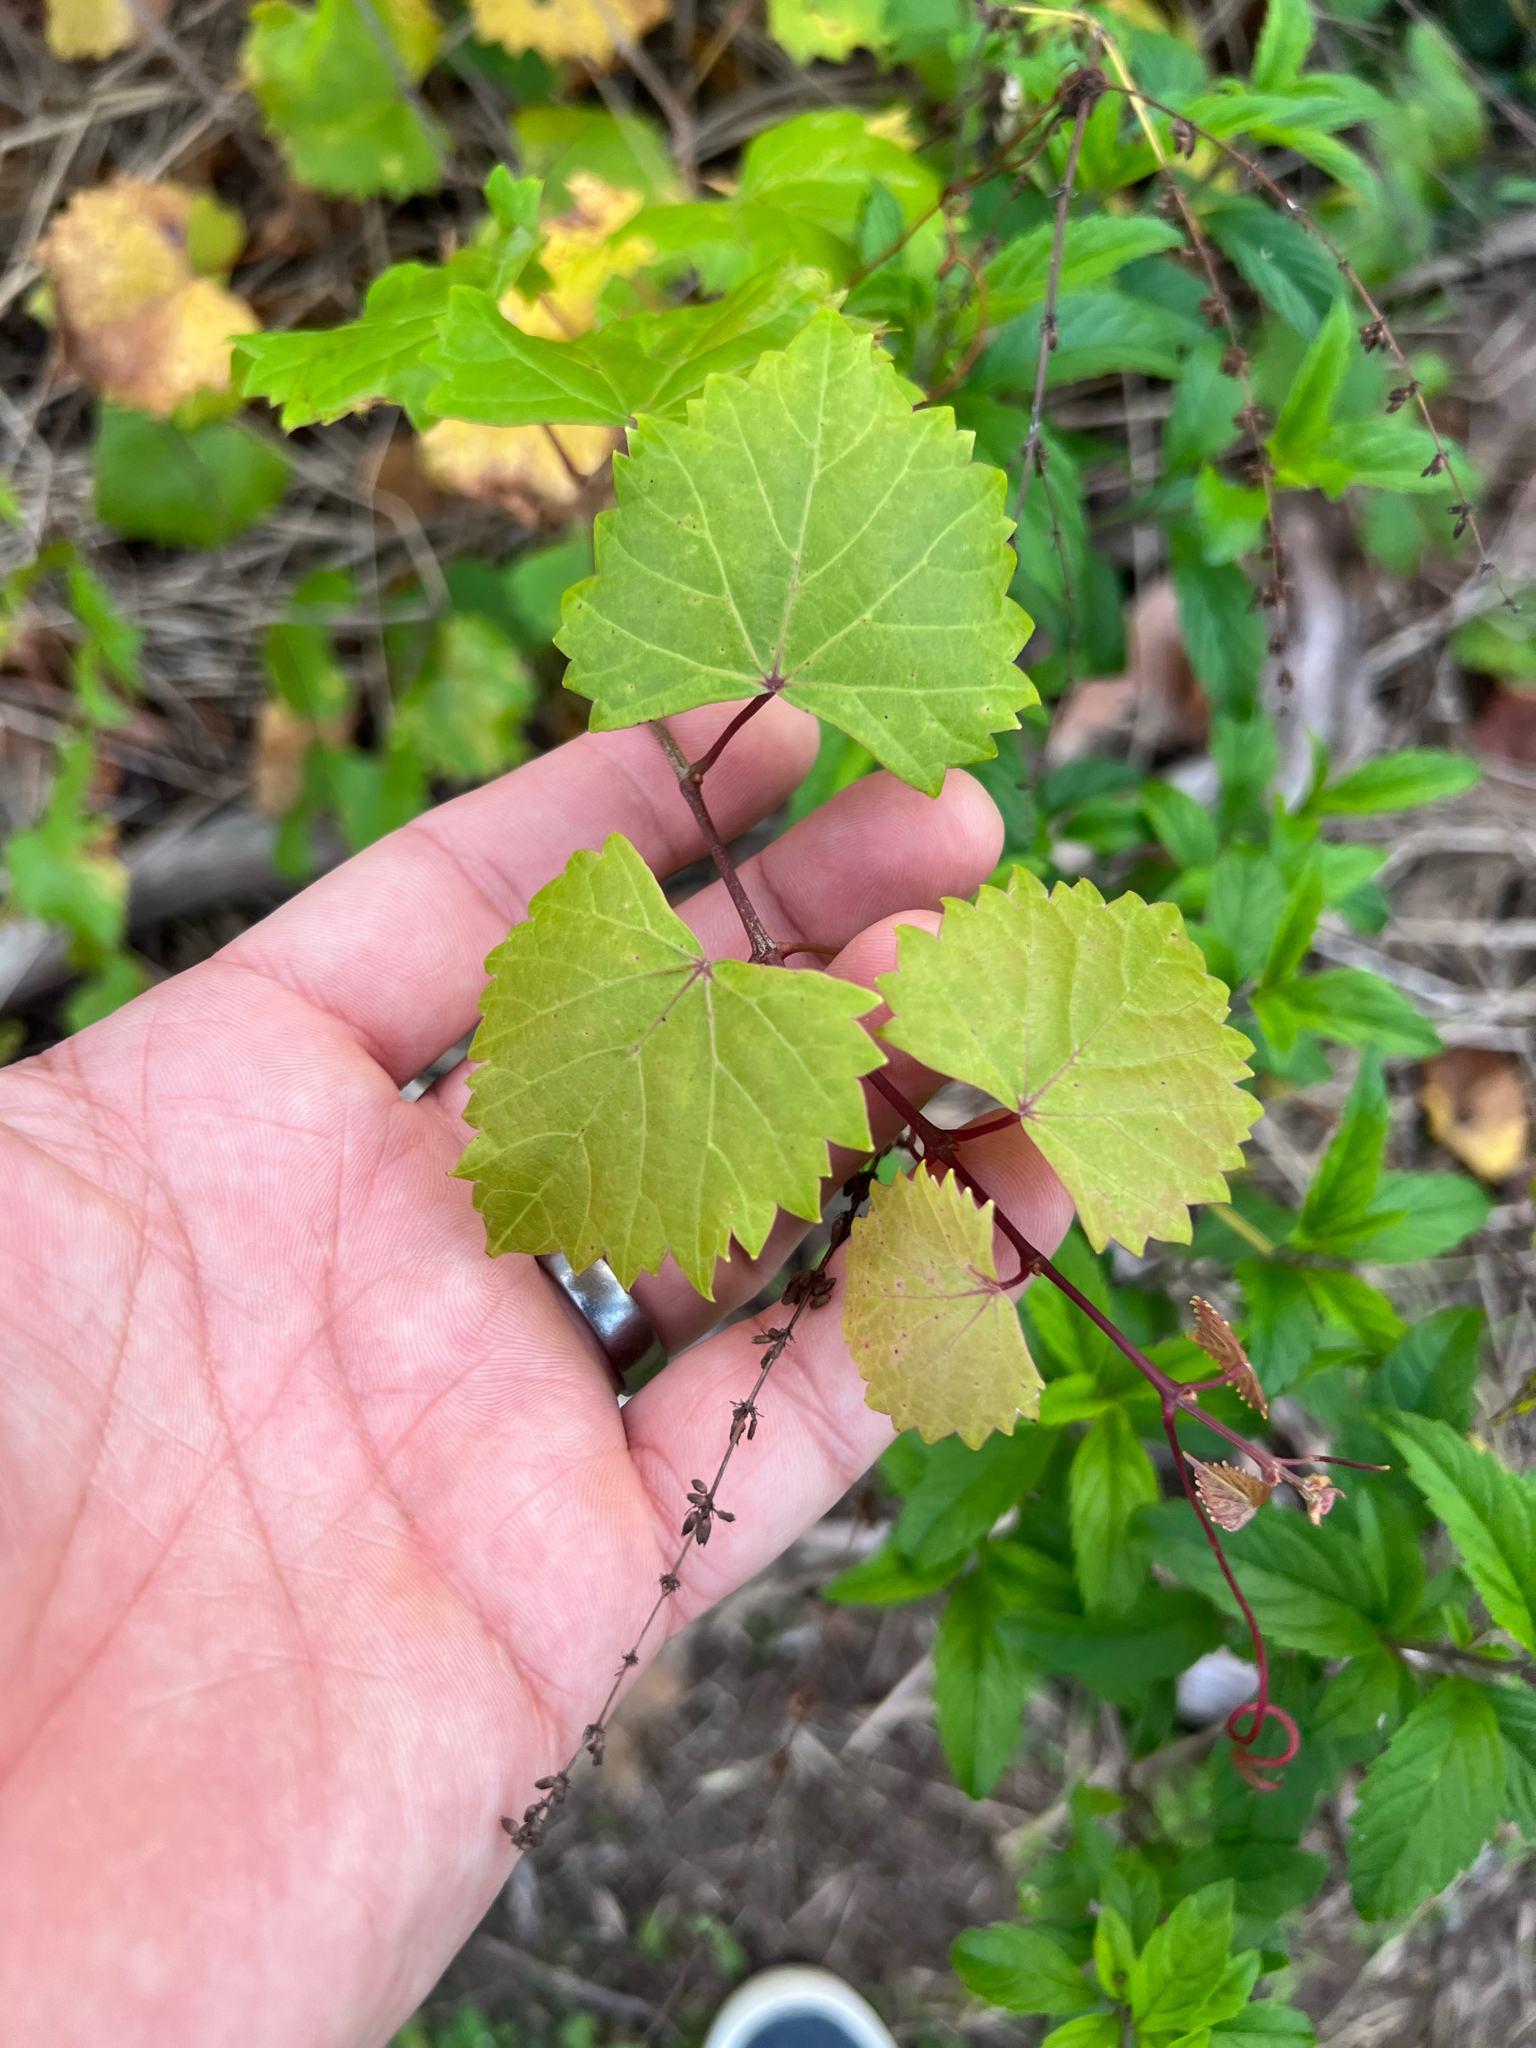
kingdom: Plantae
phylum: Tracheophyta
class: Magnoliopsida
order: Vitales
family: Vitaceae
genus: Vitis
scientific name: Vitis rotundifolia
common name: Muscadine grape
